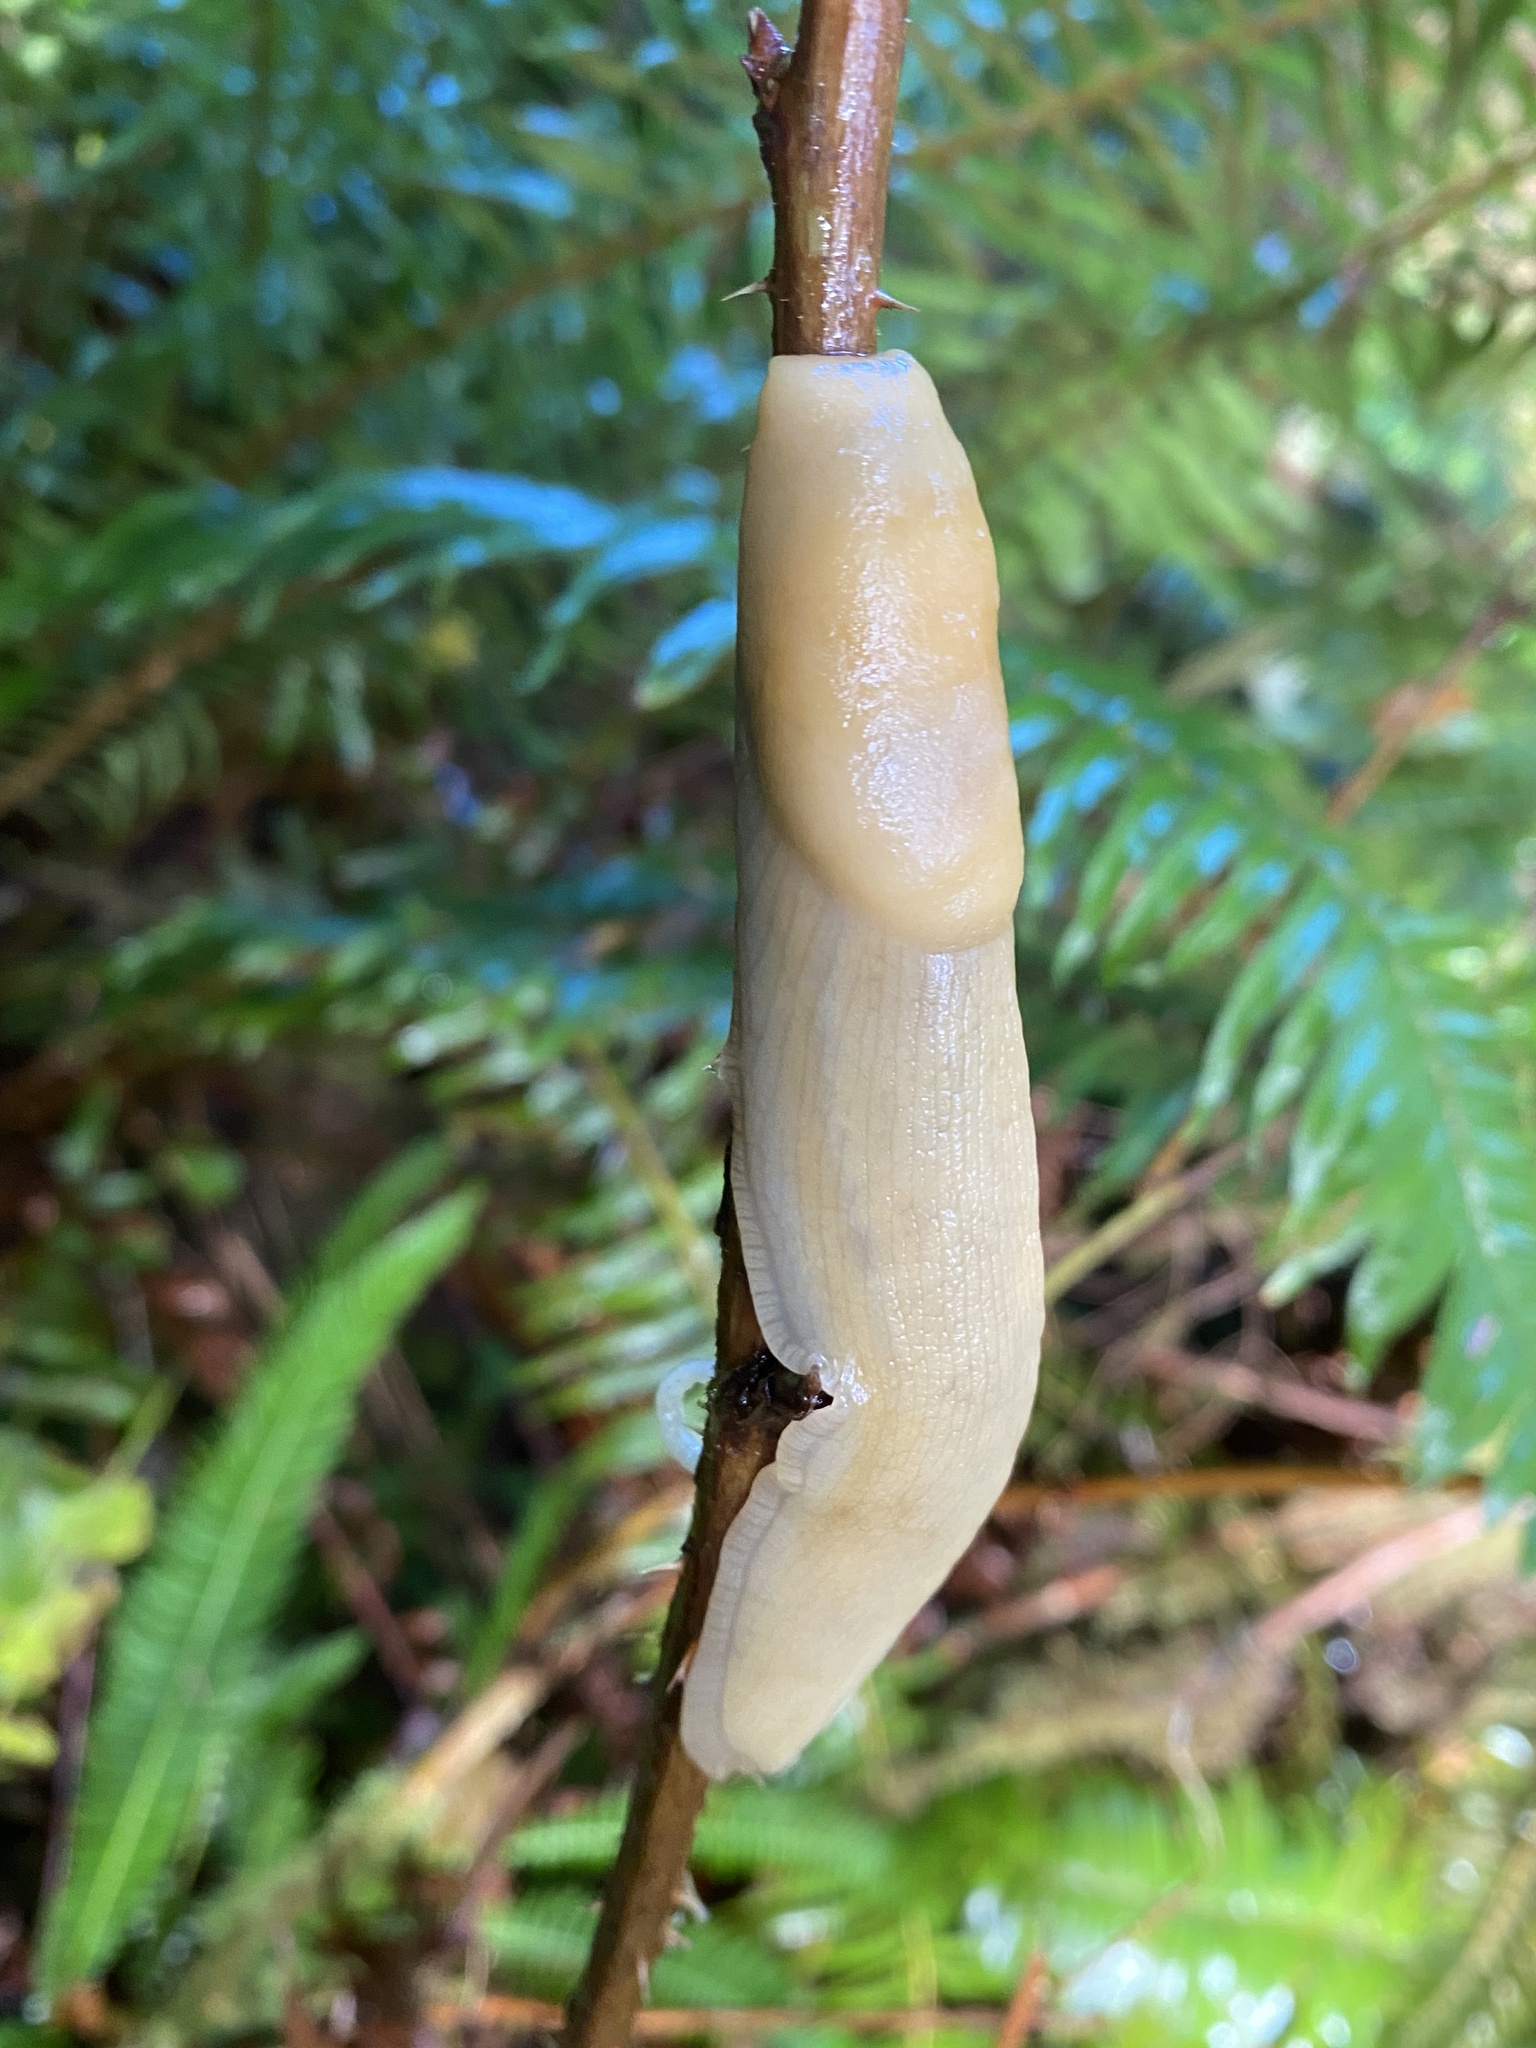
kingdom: Animalia
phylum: Mollusca
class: Gastropoda
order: Stylommatophora
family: Ariolimacidae
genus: Ariolimax
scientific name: Ariolimax columbianus
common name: Pacific banana slug
